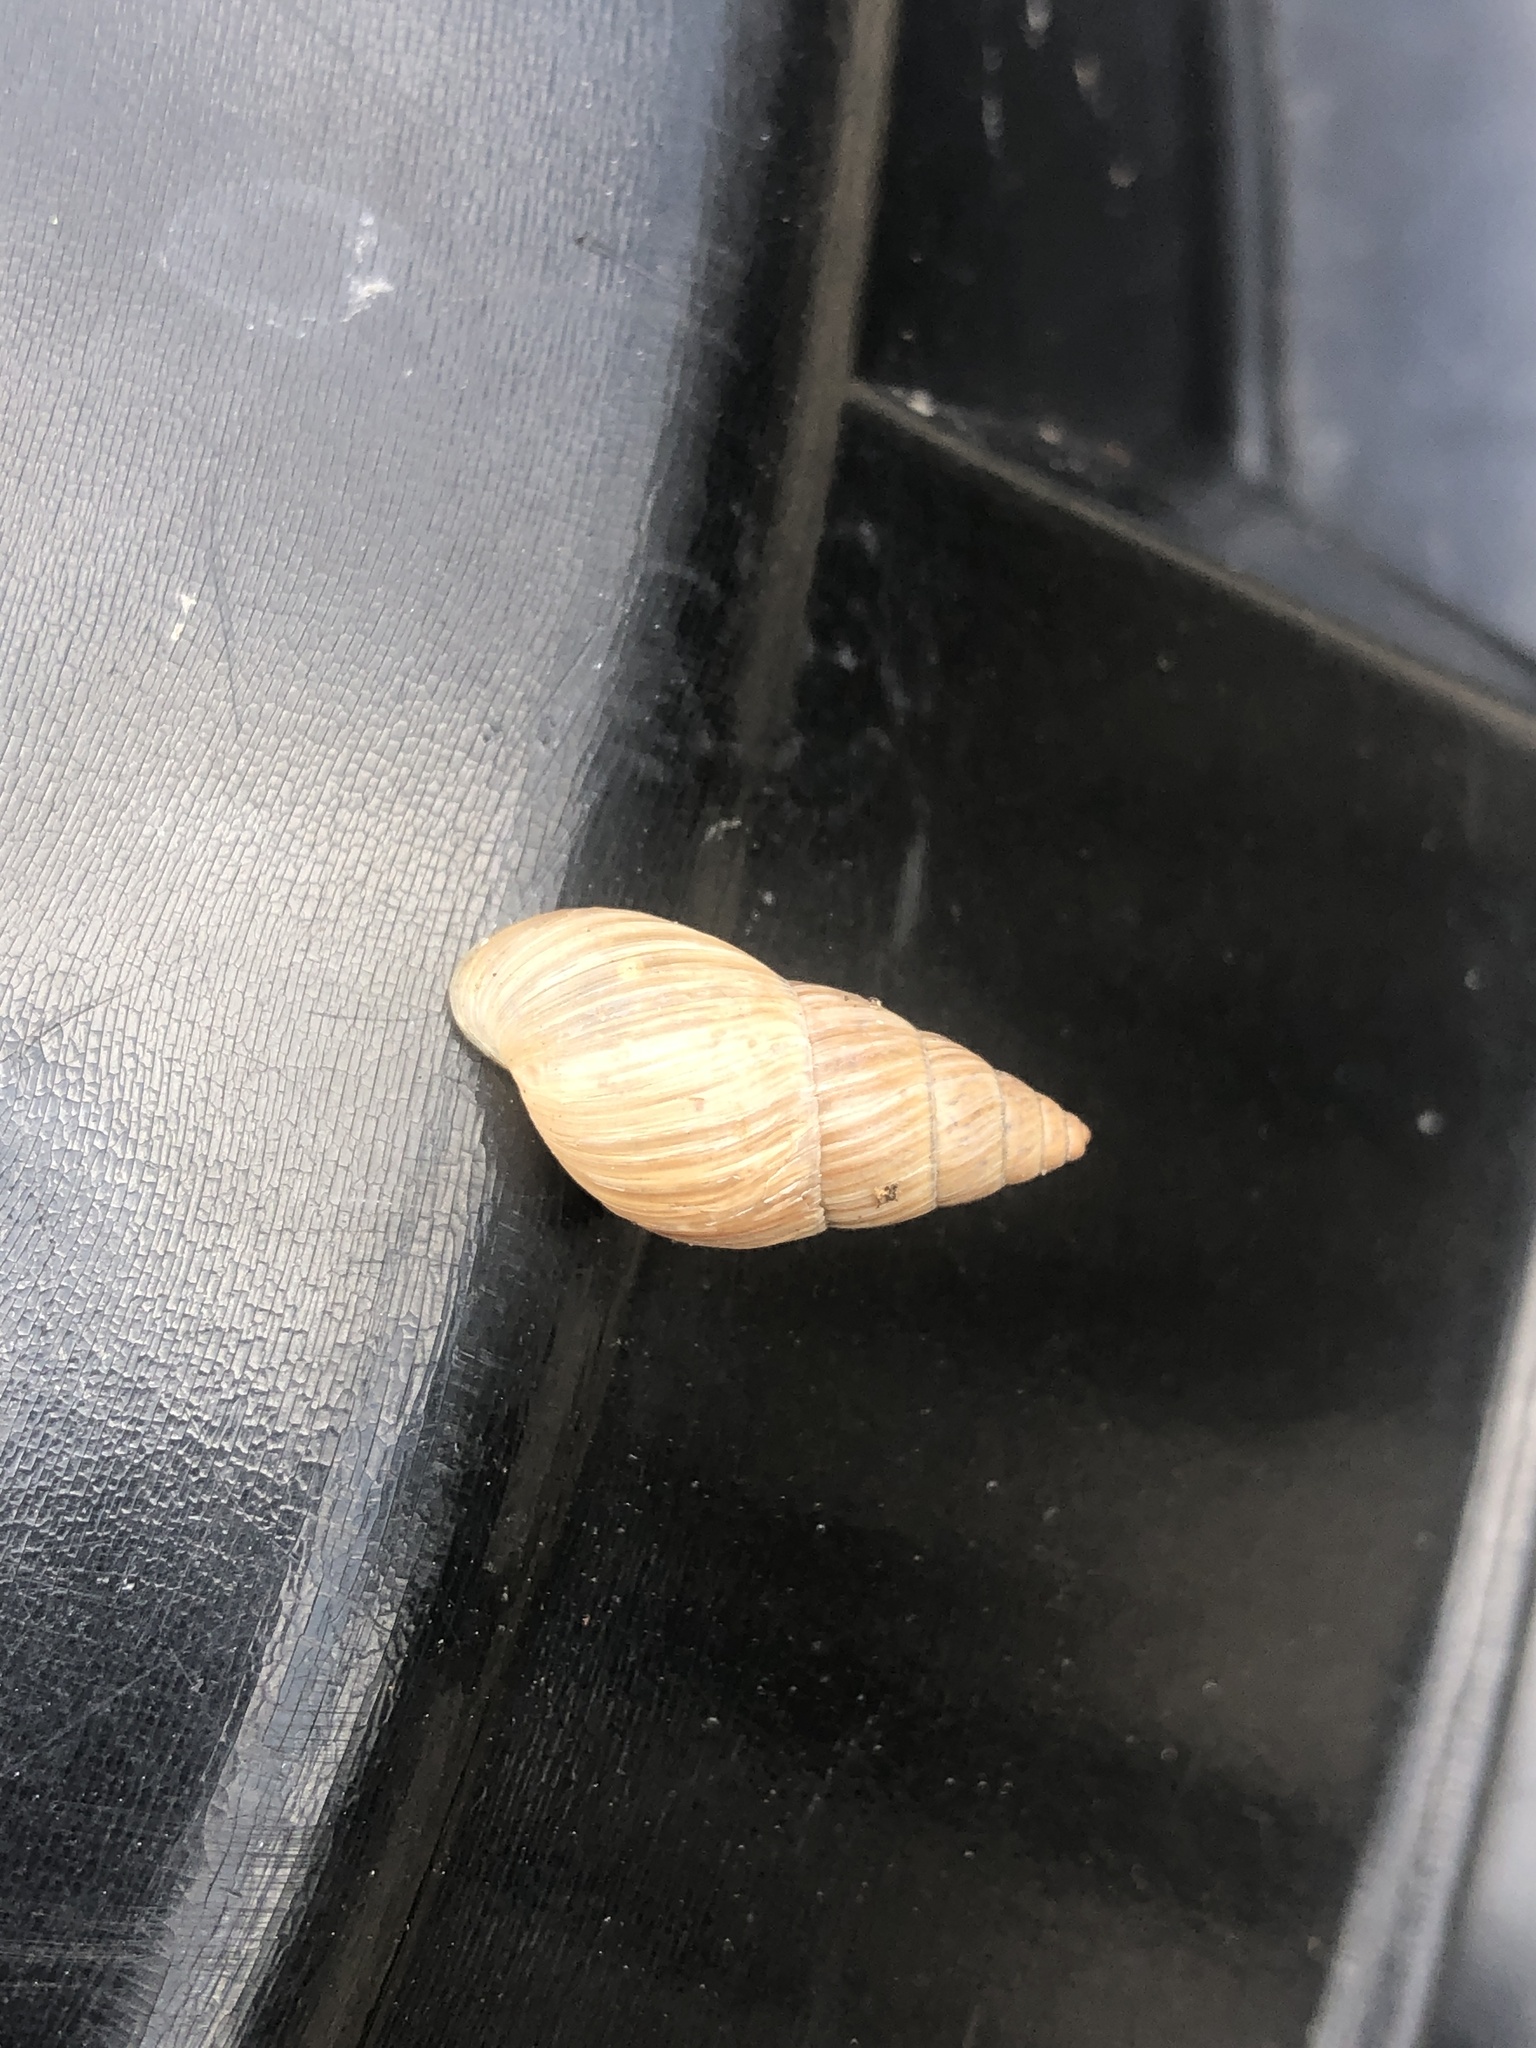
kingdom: Animalia
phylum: Mollusca
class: Gastropoda
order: Stylommatophora
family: Bulimulidae
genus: Bulimulus
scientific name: Bulimulus bonariensis
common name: Snail
